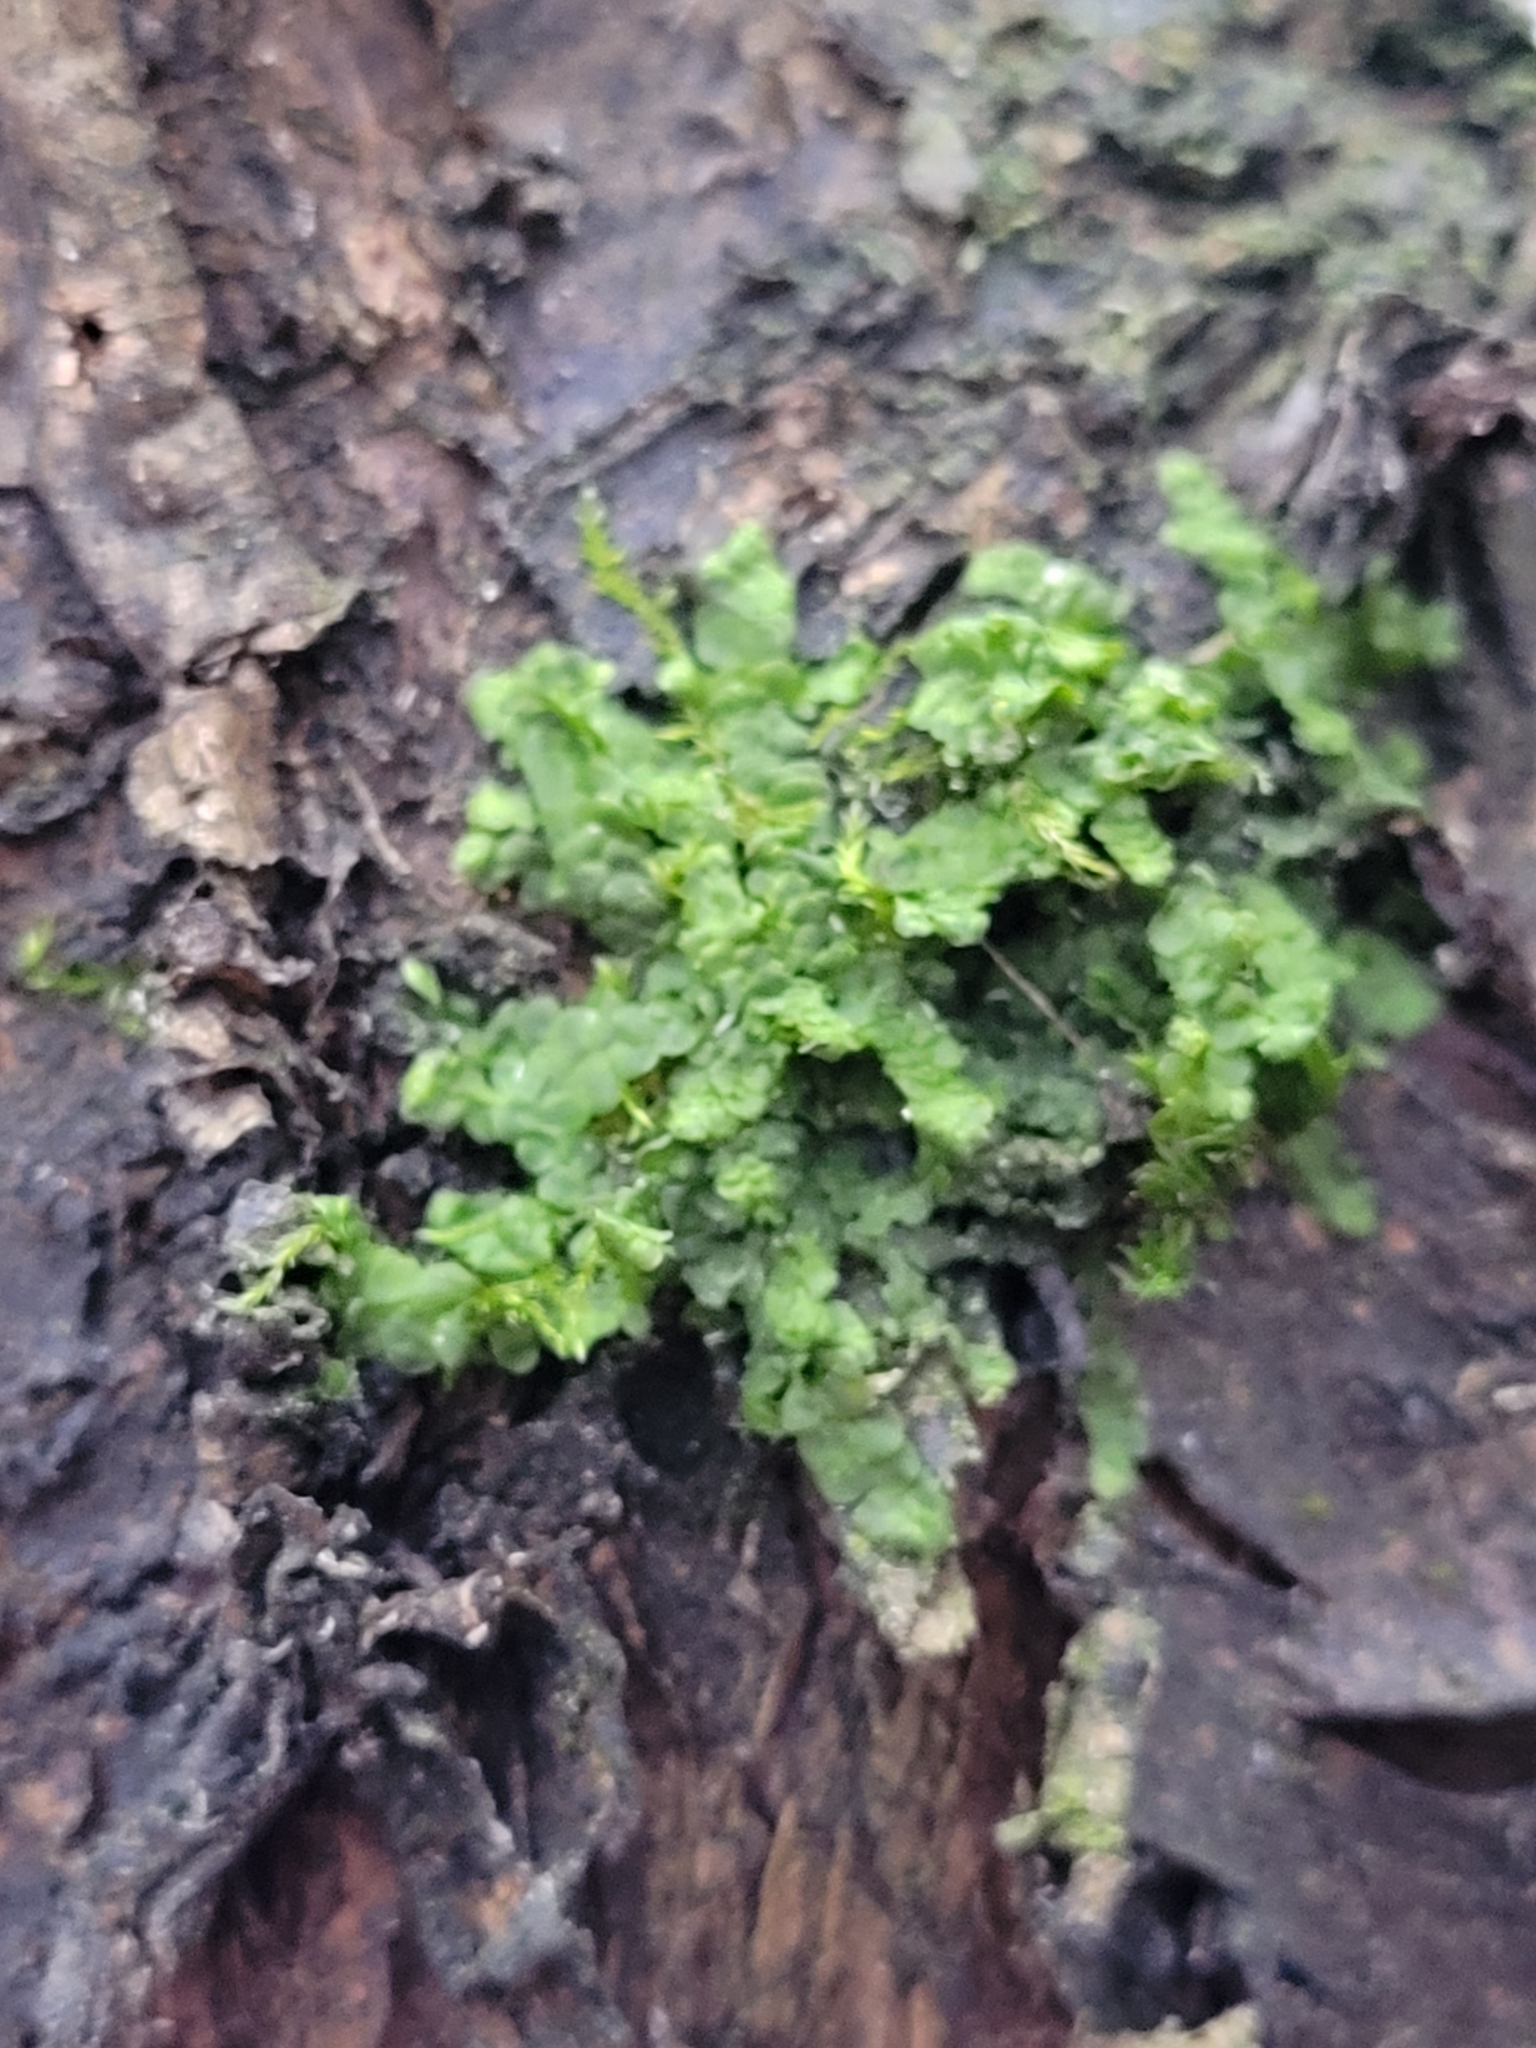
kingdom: Plantae
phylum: Marchantiophyta
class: Jungermanniopsida
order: Porellales
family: Radulaceae
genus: Radula
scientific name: Radula complanata
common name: Flat-leaved scalewort
